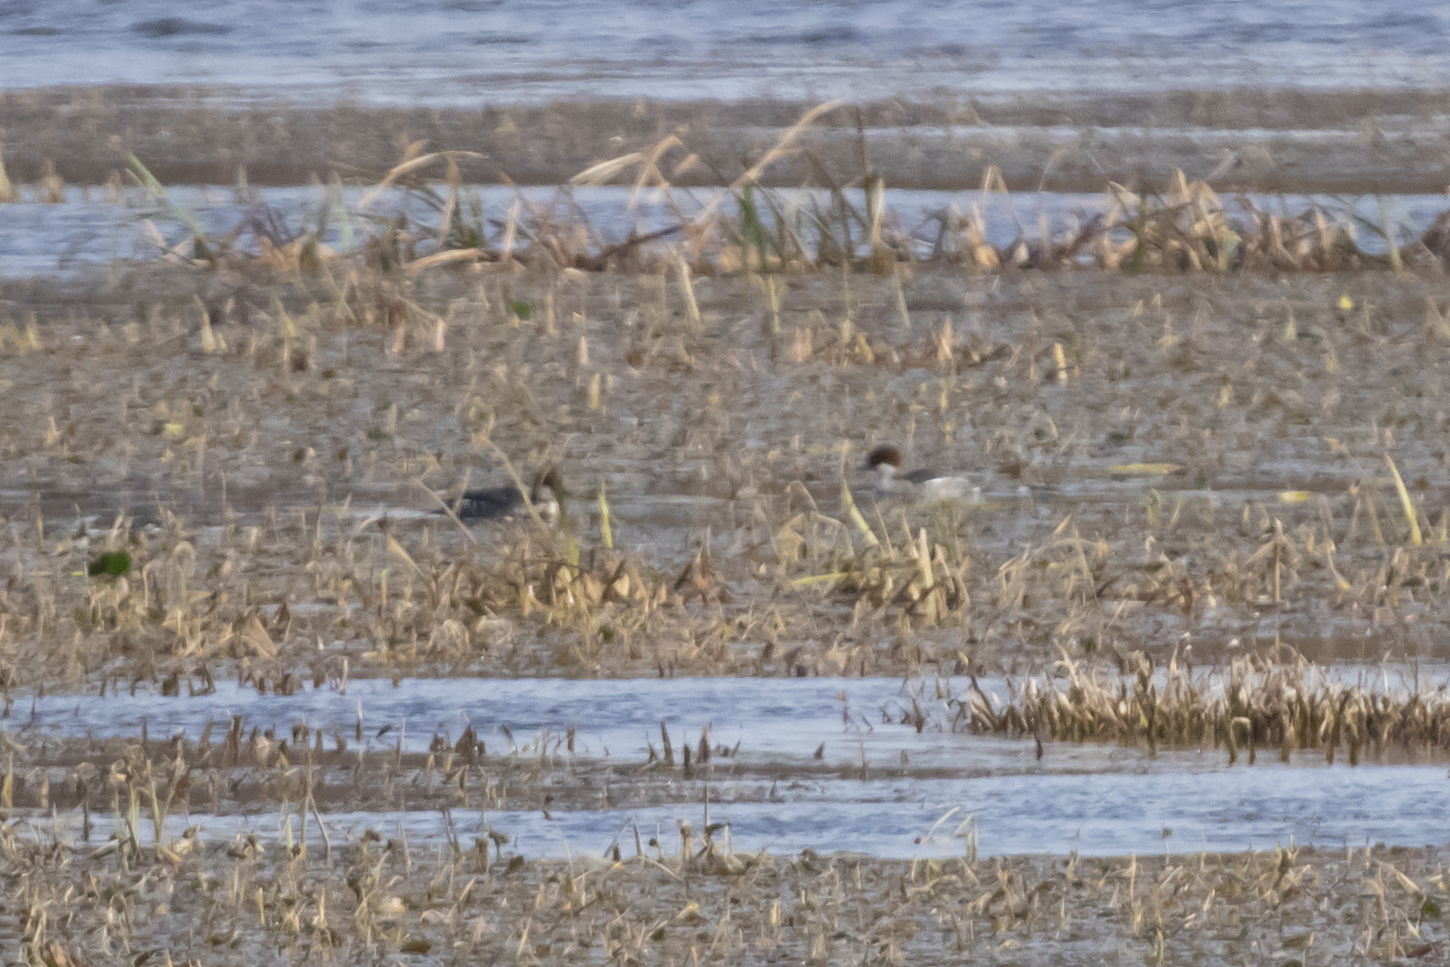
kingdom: Animalia
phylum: Chordata
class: Aves
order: Anseriformes
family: Anatidae
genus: Mergellus
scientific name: Mergellus albellus
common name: Smew
